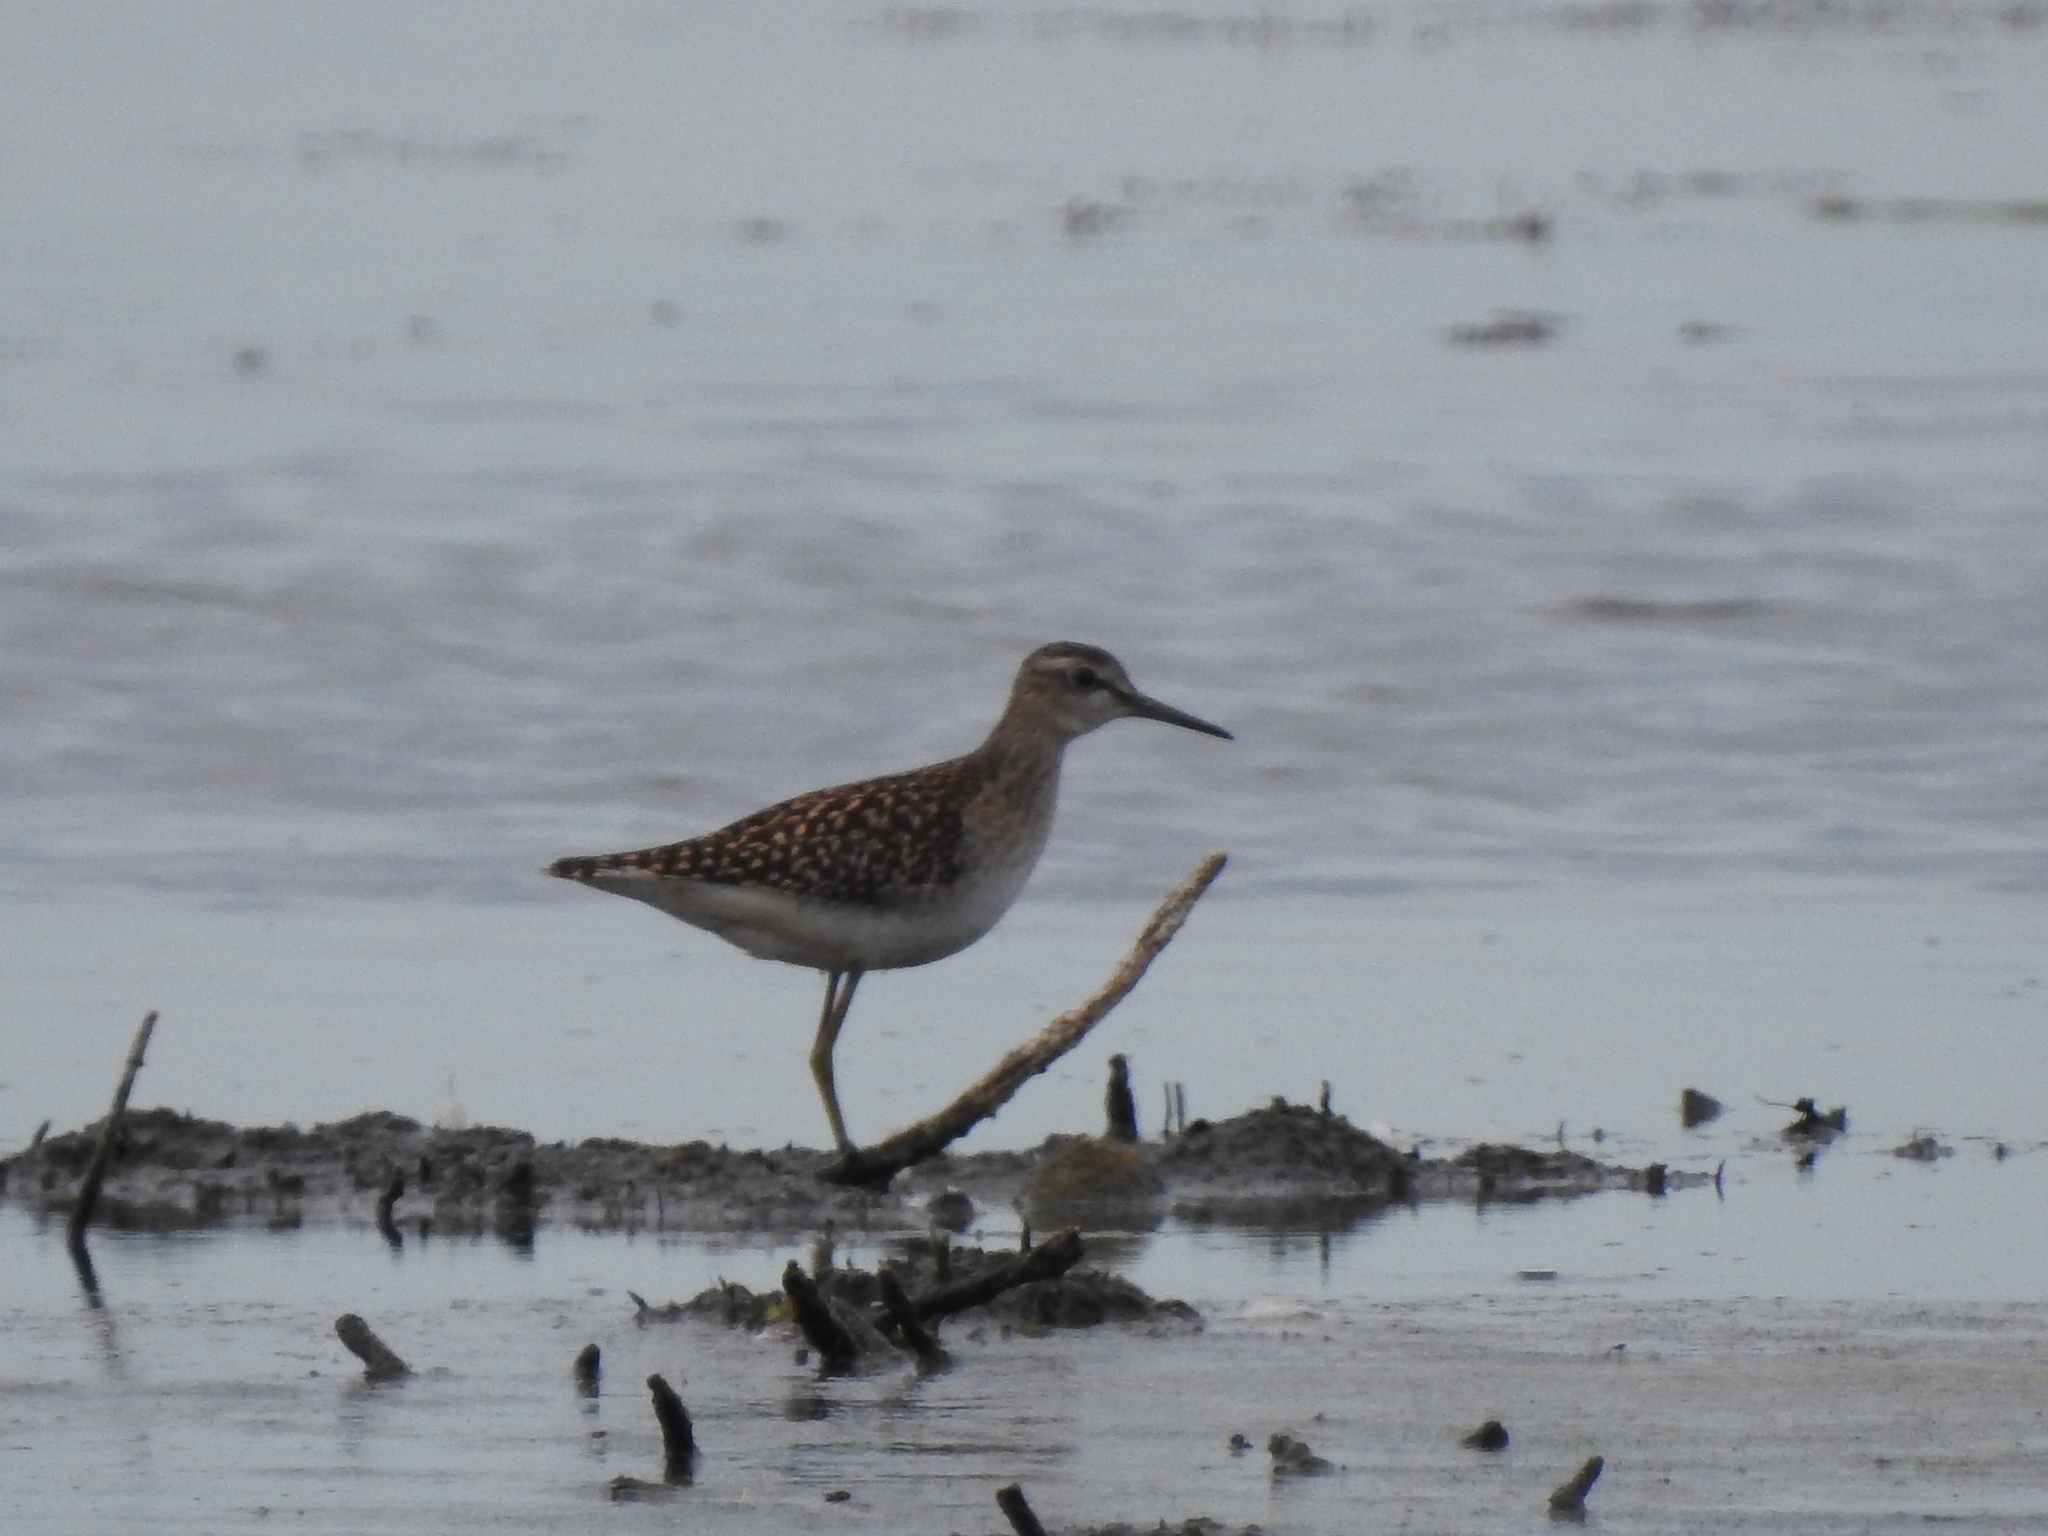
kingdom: Animalia
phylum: Chordata
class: Aves
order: Charadriiformes
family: Scolopacidae
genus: Tringa
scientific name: Tringa glareola
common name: Wood sandpiper
